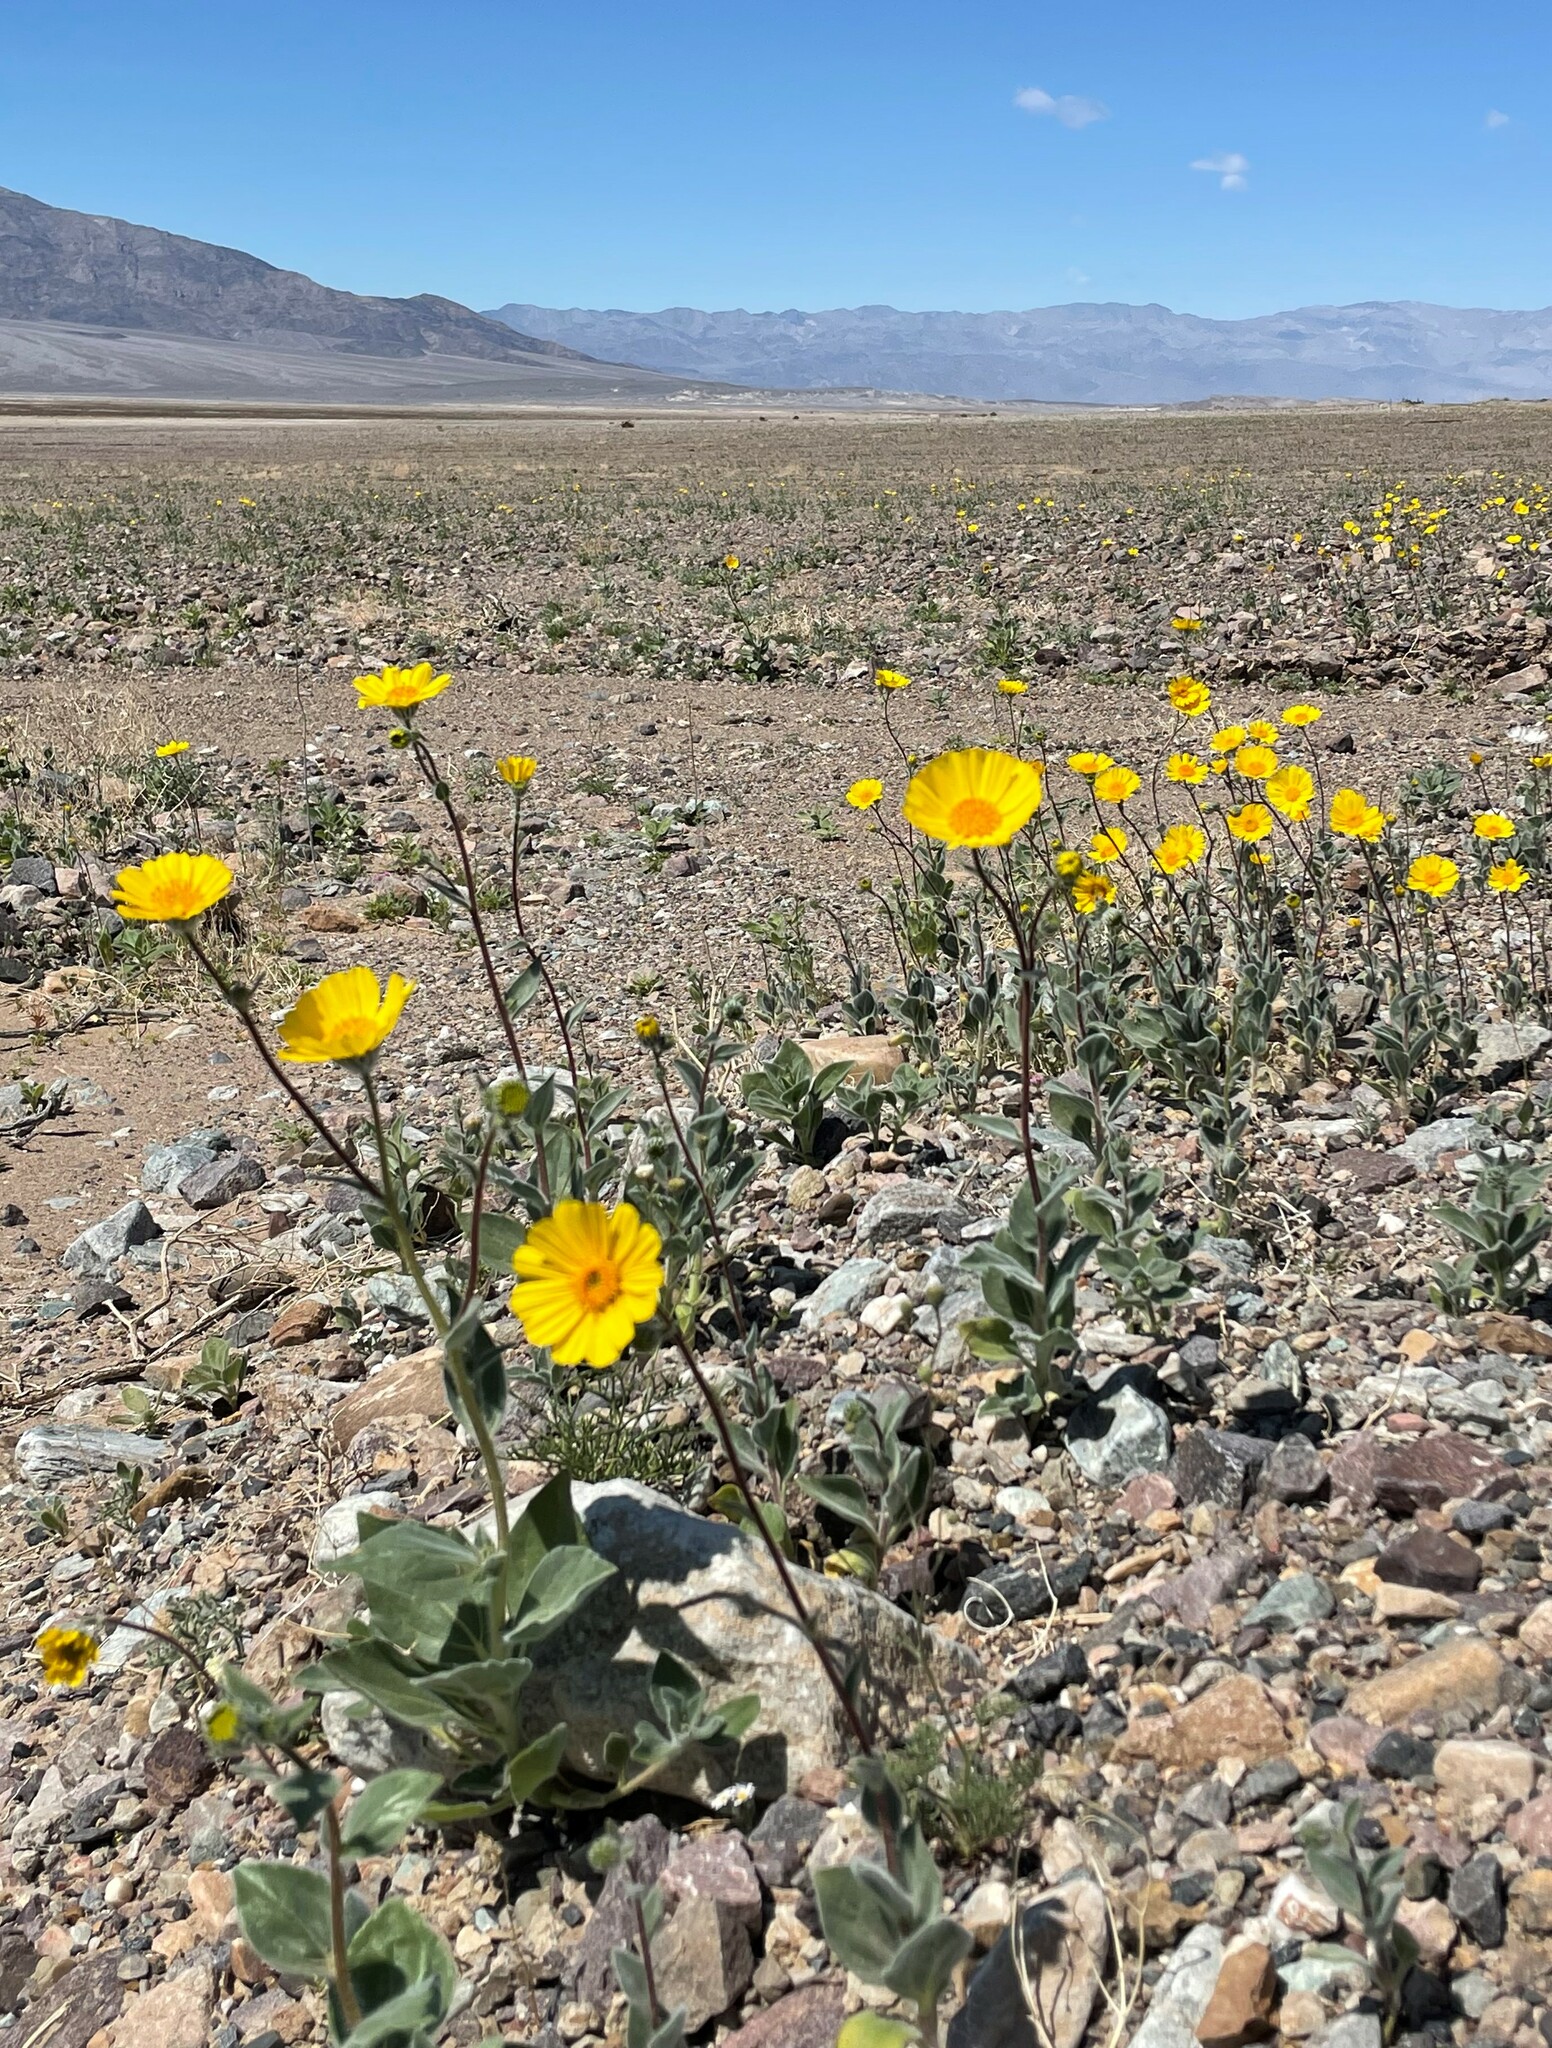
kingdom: Plantae
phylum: Tracheophyta
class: Magnoliopsida
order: Asterales
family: Asteraceae
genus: Geraea
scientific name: Geraea canescens
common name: Desert-gold
